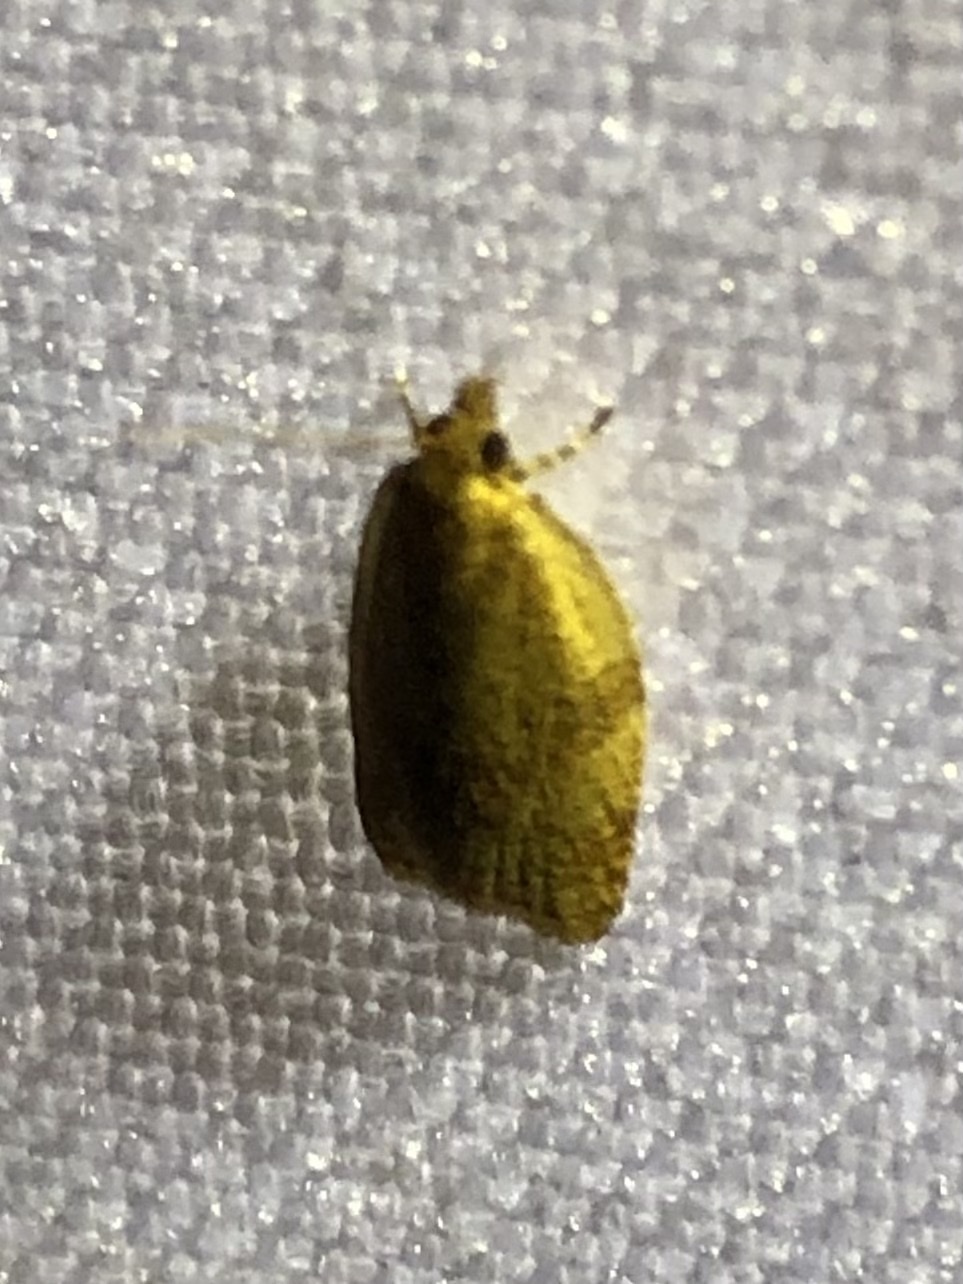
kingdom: Animalia
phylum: Arthropoda
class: Insecta
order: Lepidoptera
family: Tortricidae
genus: Clepsis
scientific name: Clepsis consimilana
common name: Privet tortrix
